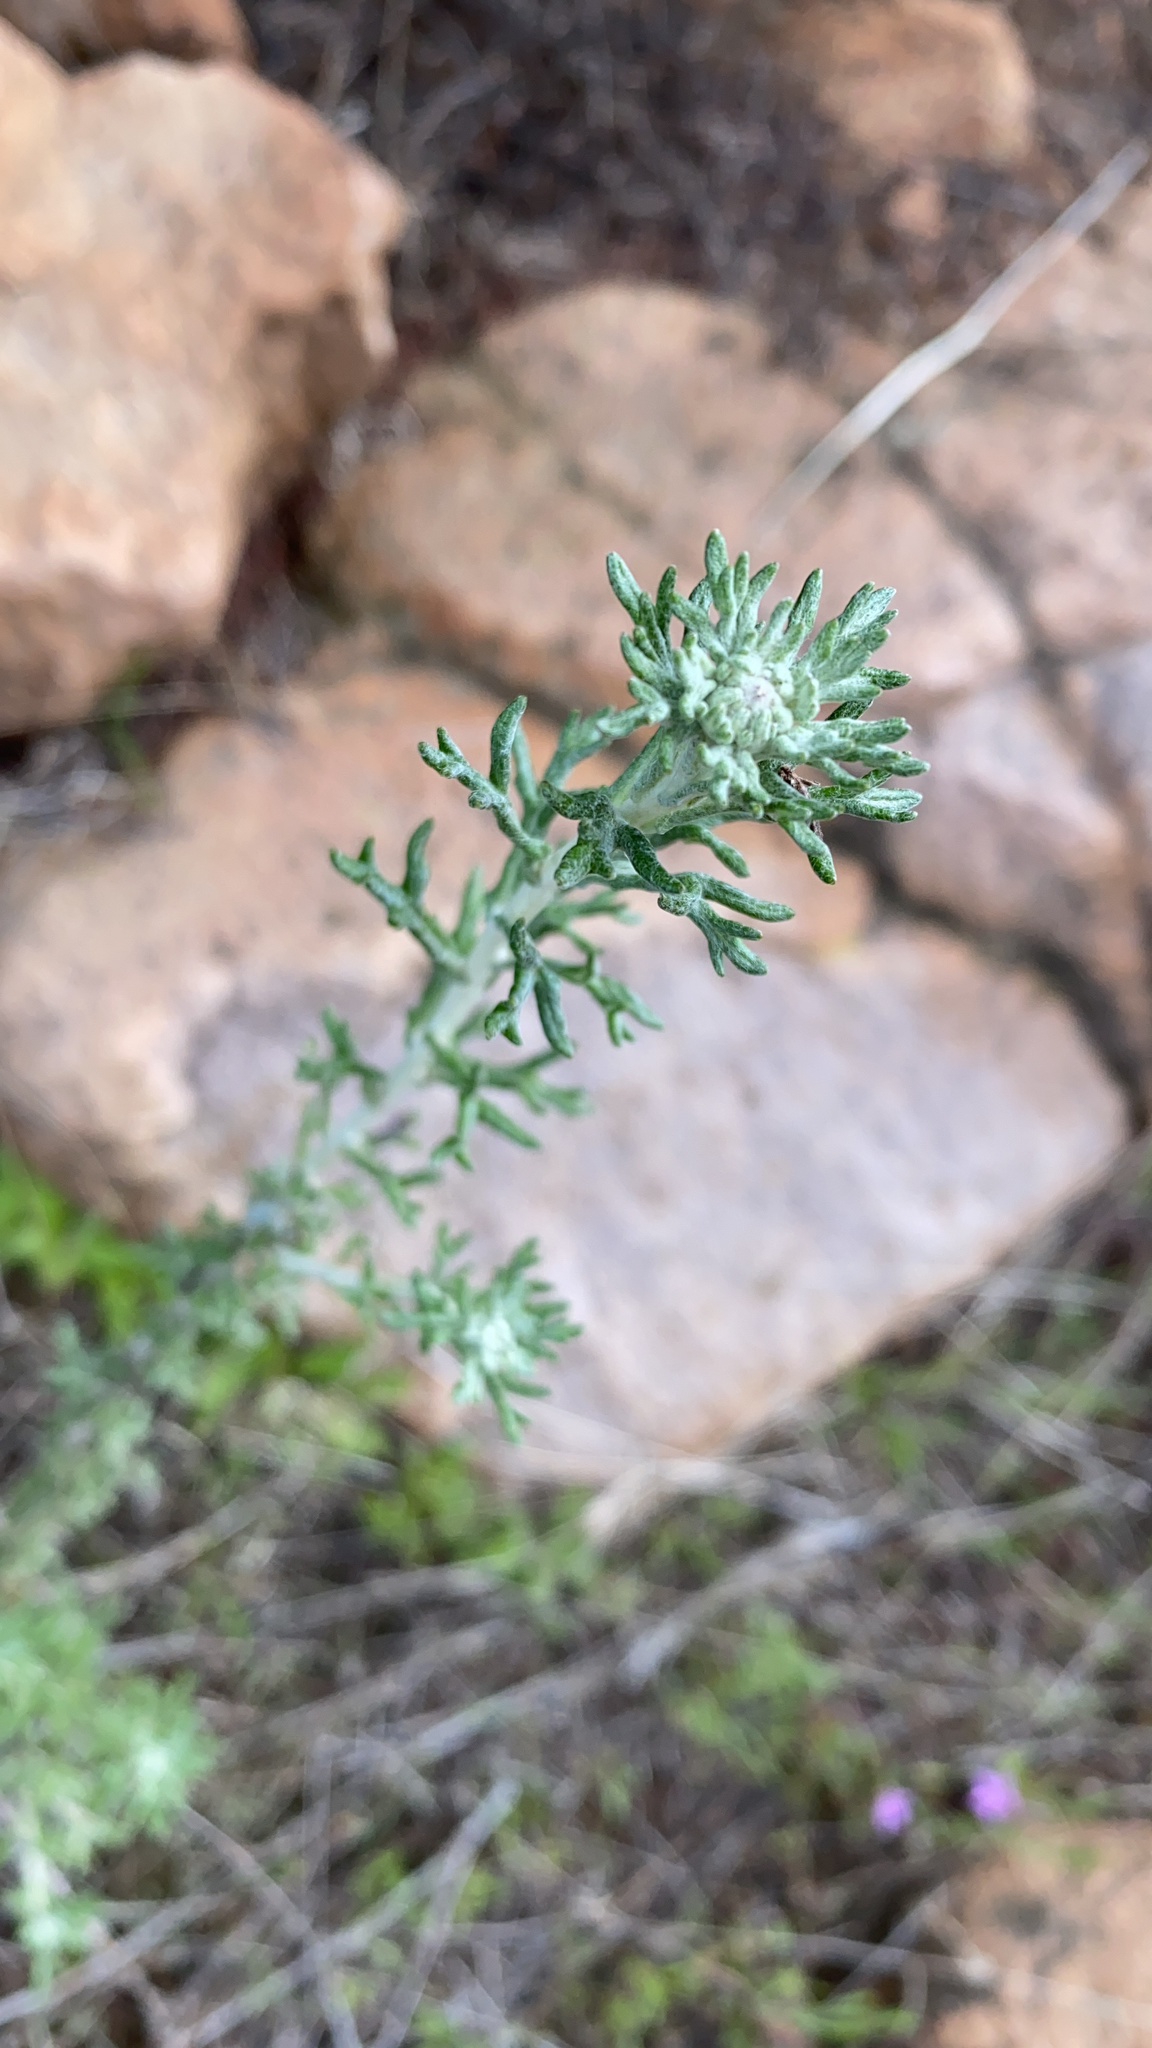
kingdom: Plantae
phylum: Tracheophyta
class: Magnoliopsida
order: Asterales
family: Asteraceae
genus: Eriophyllum
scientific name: Eriophyllum confertiflorum
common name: Golden-yarrow
